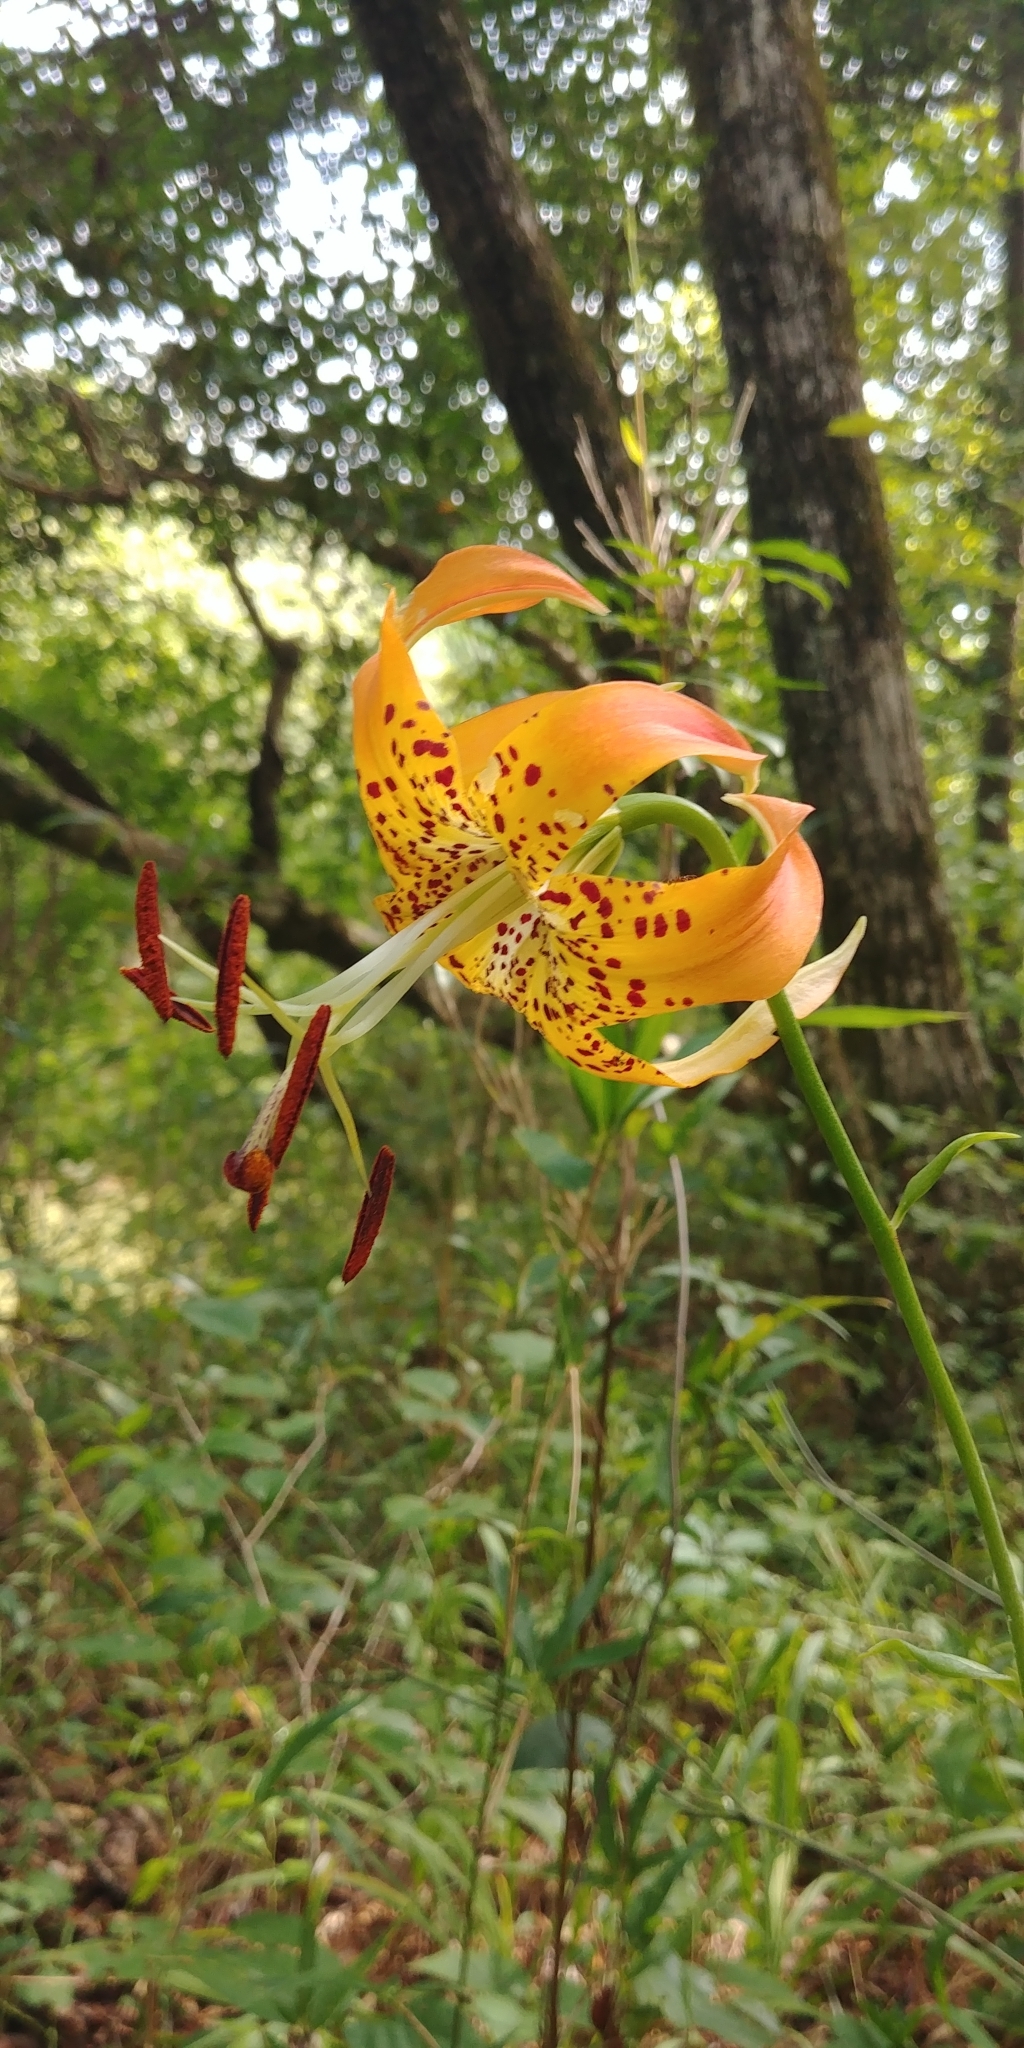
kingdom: Plantae
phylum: Tracheophyta
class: Liliopsida
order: Liliales
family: Liliaceae
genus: Lilium
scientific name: Lilium michauxii
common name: Carolina lily
